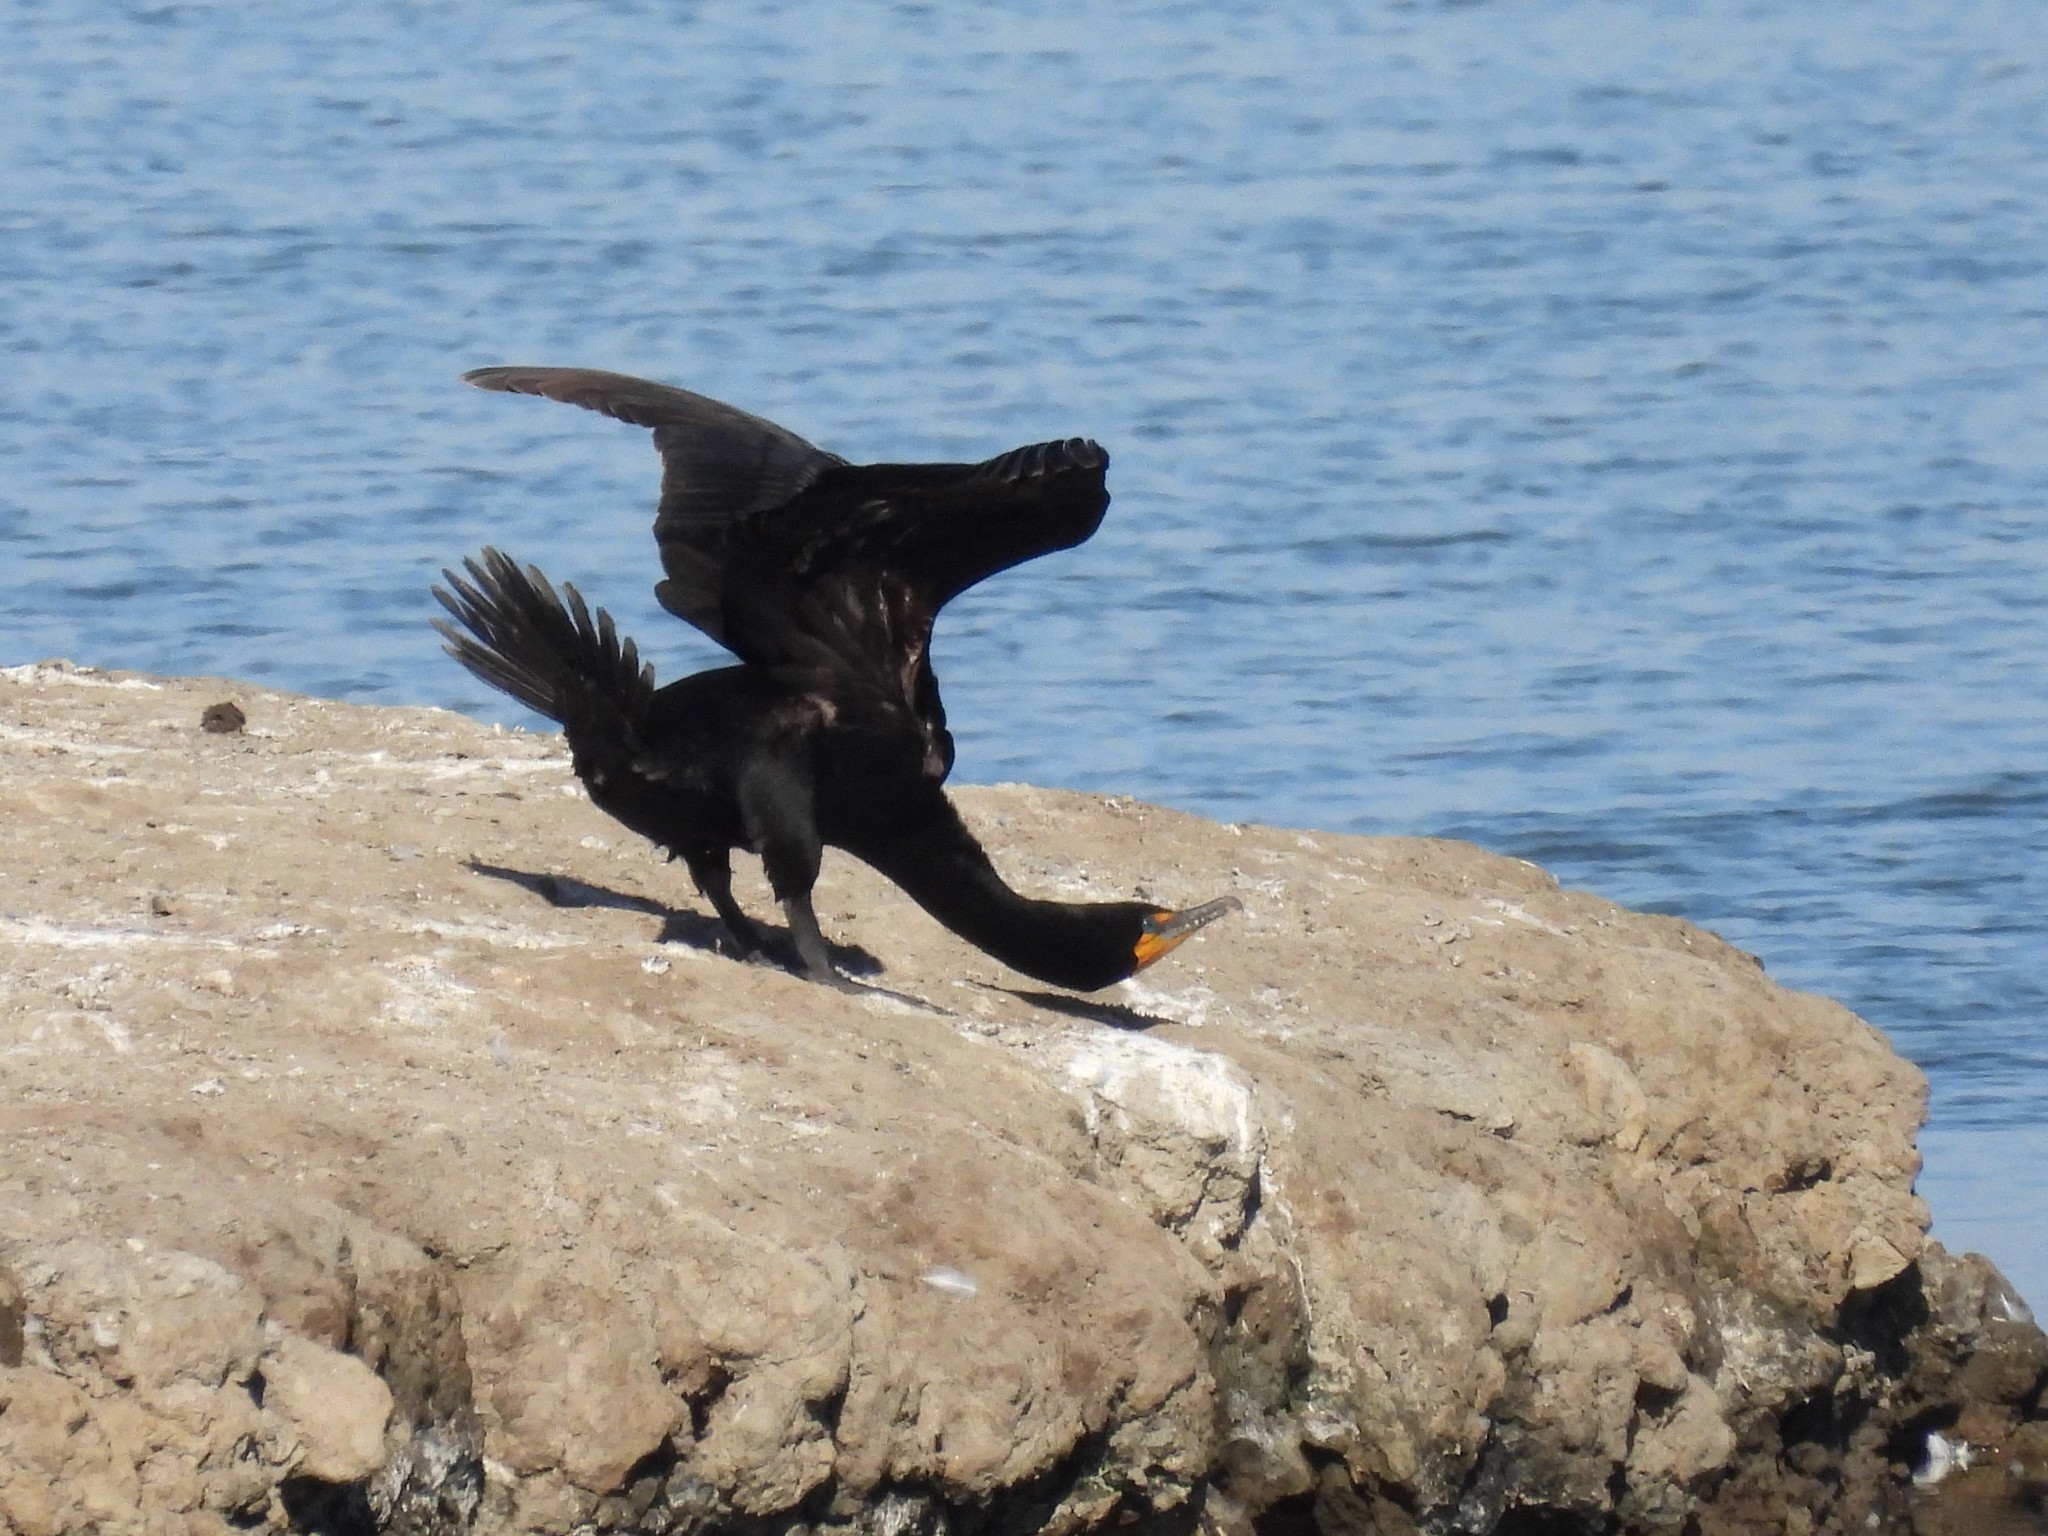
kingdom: Animalia
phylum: Chordata
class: Aves
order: Suliformes
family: Phalacrocoracidae
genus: Phalacrocorax
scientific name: Phalacrocorax auritus
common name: Double-crested cormorant
